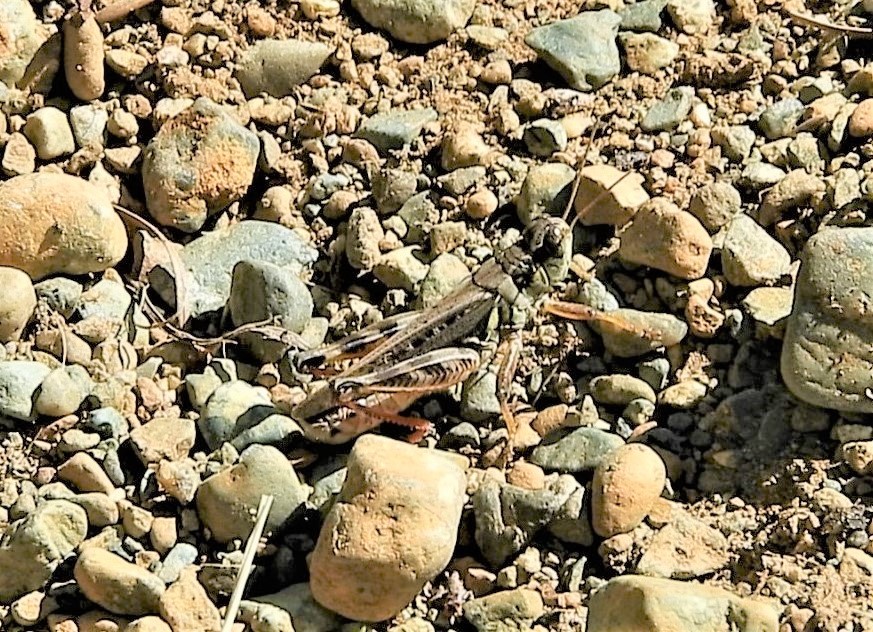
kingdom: Animalia
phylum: Arthropoda
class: Insecta
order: Orthoptera
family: Acrididae
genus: Melanoplus
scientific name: Melanoplus sanguinipes
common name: Migratory grasshopper
